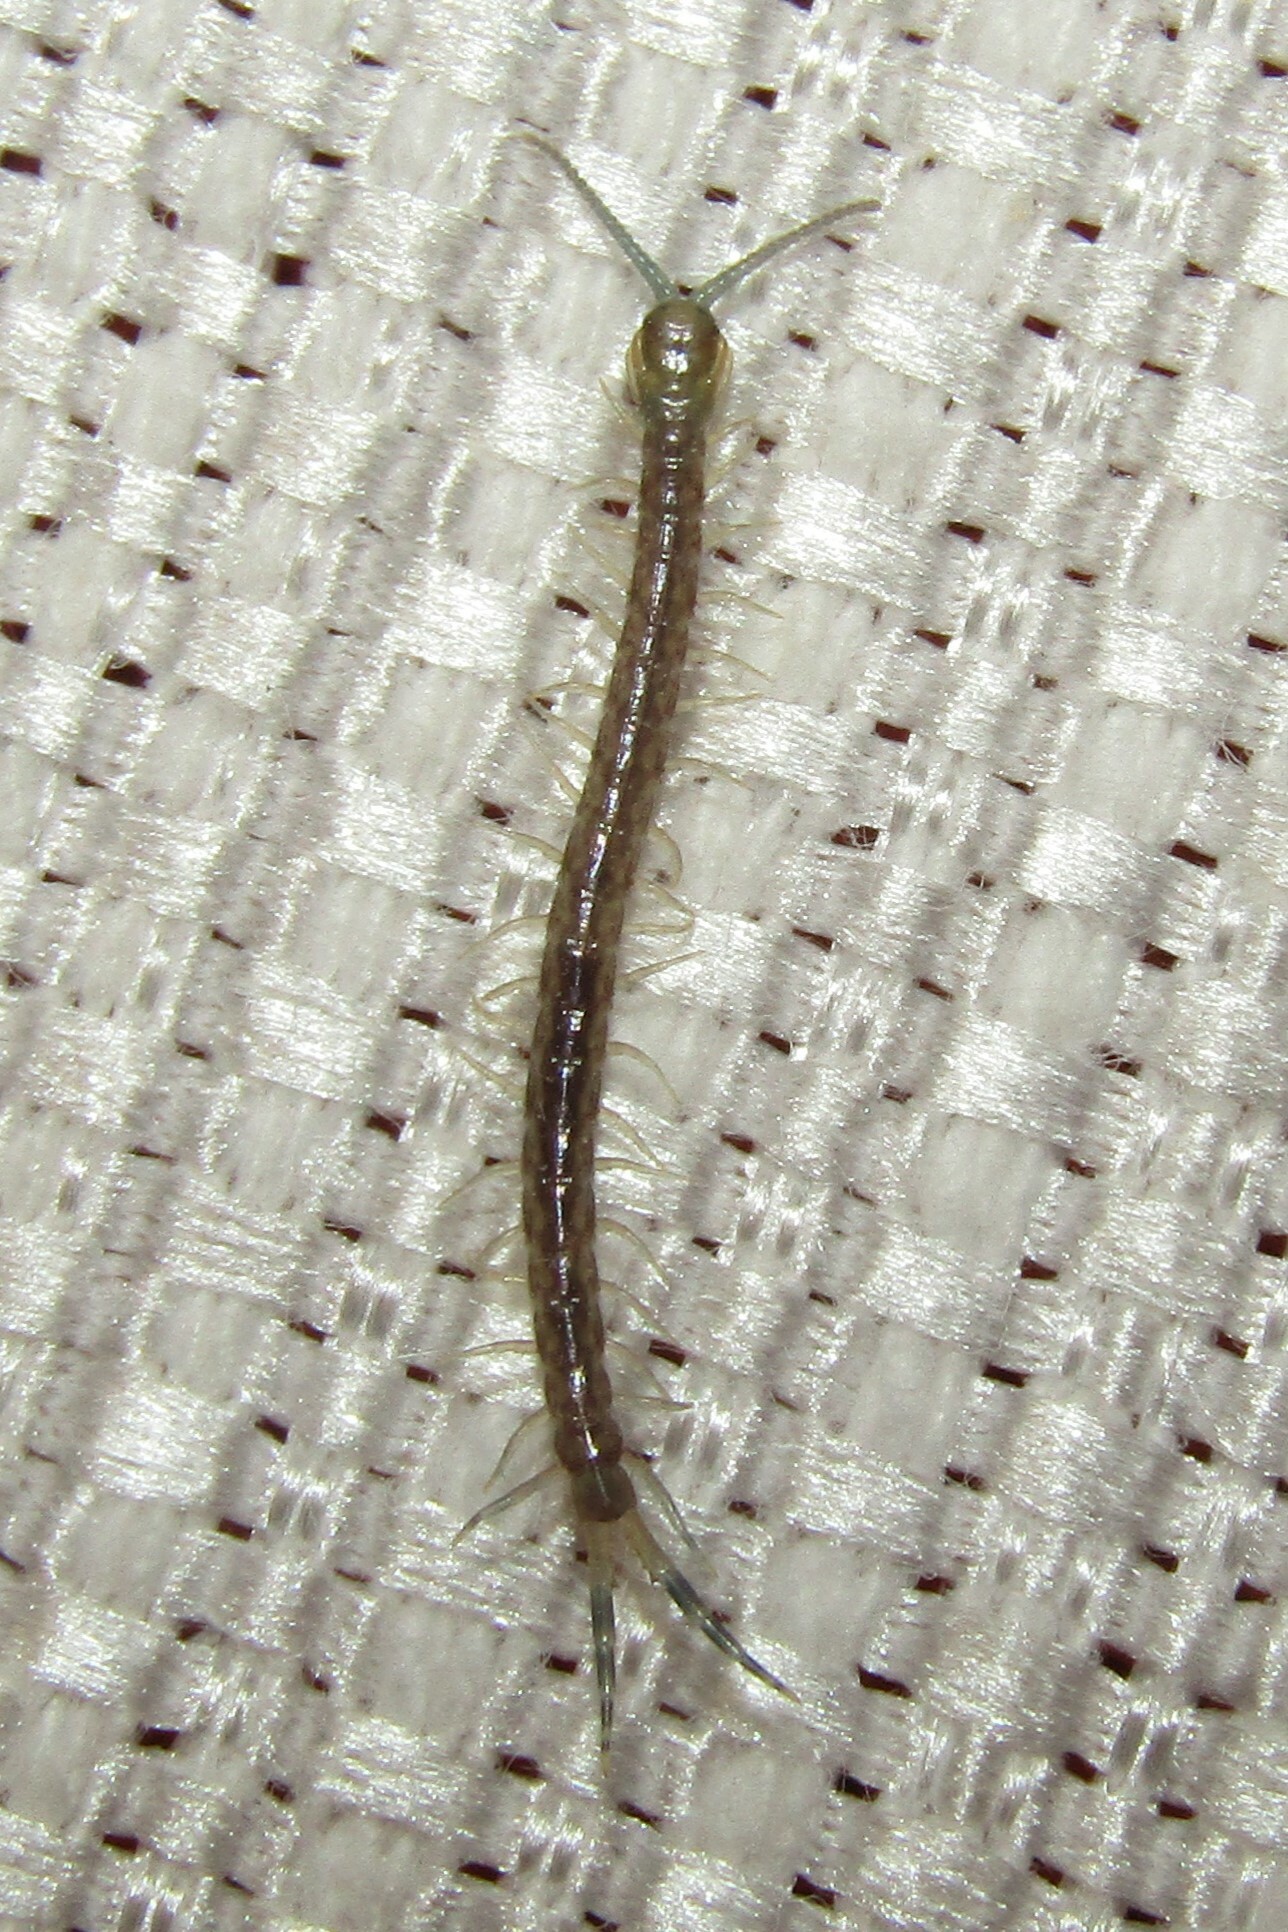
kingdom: Animalia
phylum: Arthropoda
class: Chilopoda
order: Scolopendromorpha
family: Scolopendridae
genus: Hemiscolopendra
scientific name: Hemiscolopendra marginata
